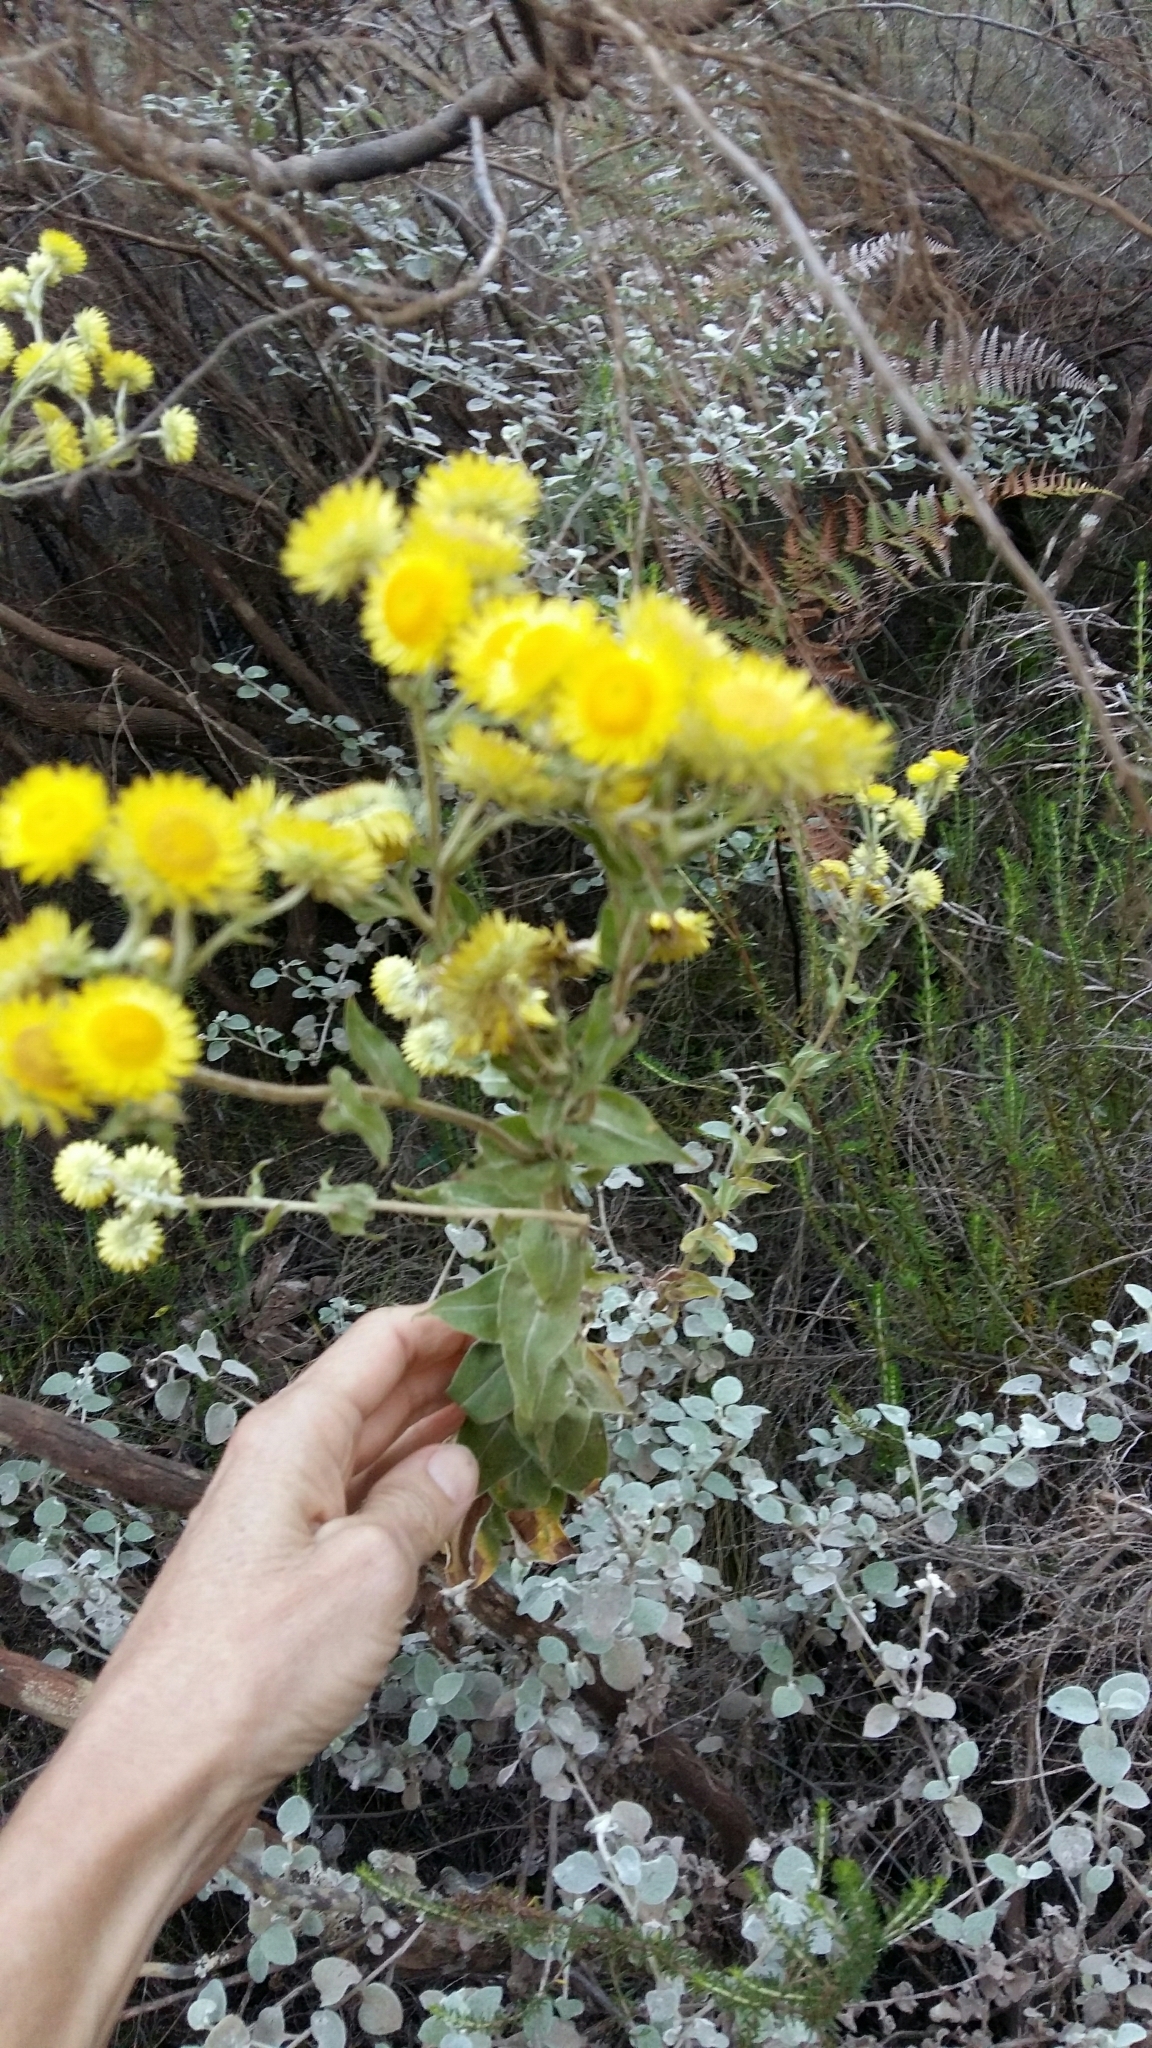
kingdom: Plantae
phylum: Tracheophyta
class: Magnoliopsida
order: Asterales
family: Asteraceae
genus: Helichrysum
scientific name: Helichrysum foetidum
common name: Stinking everlasting
